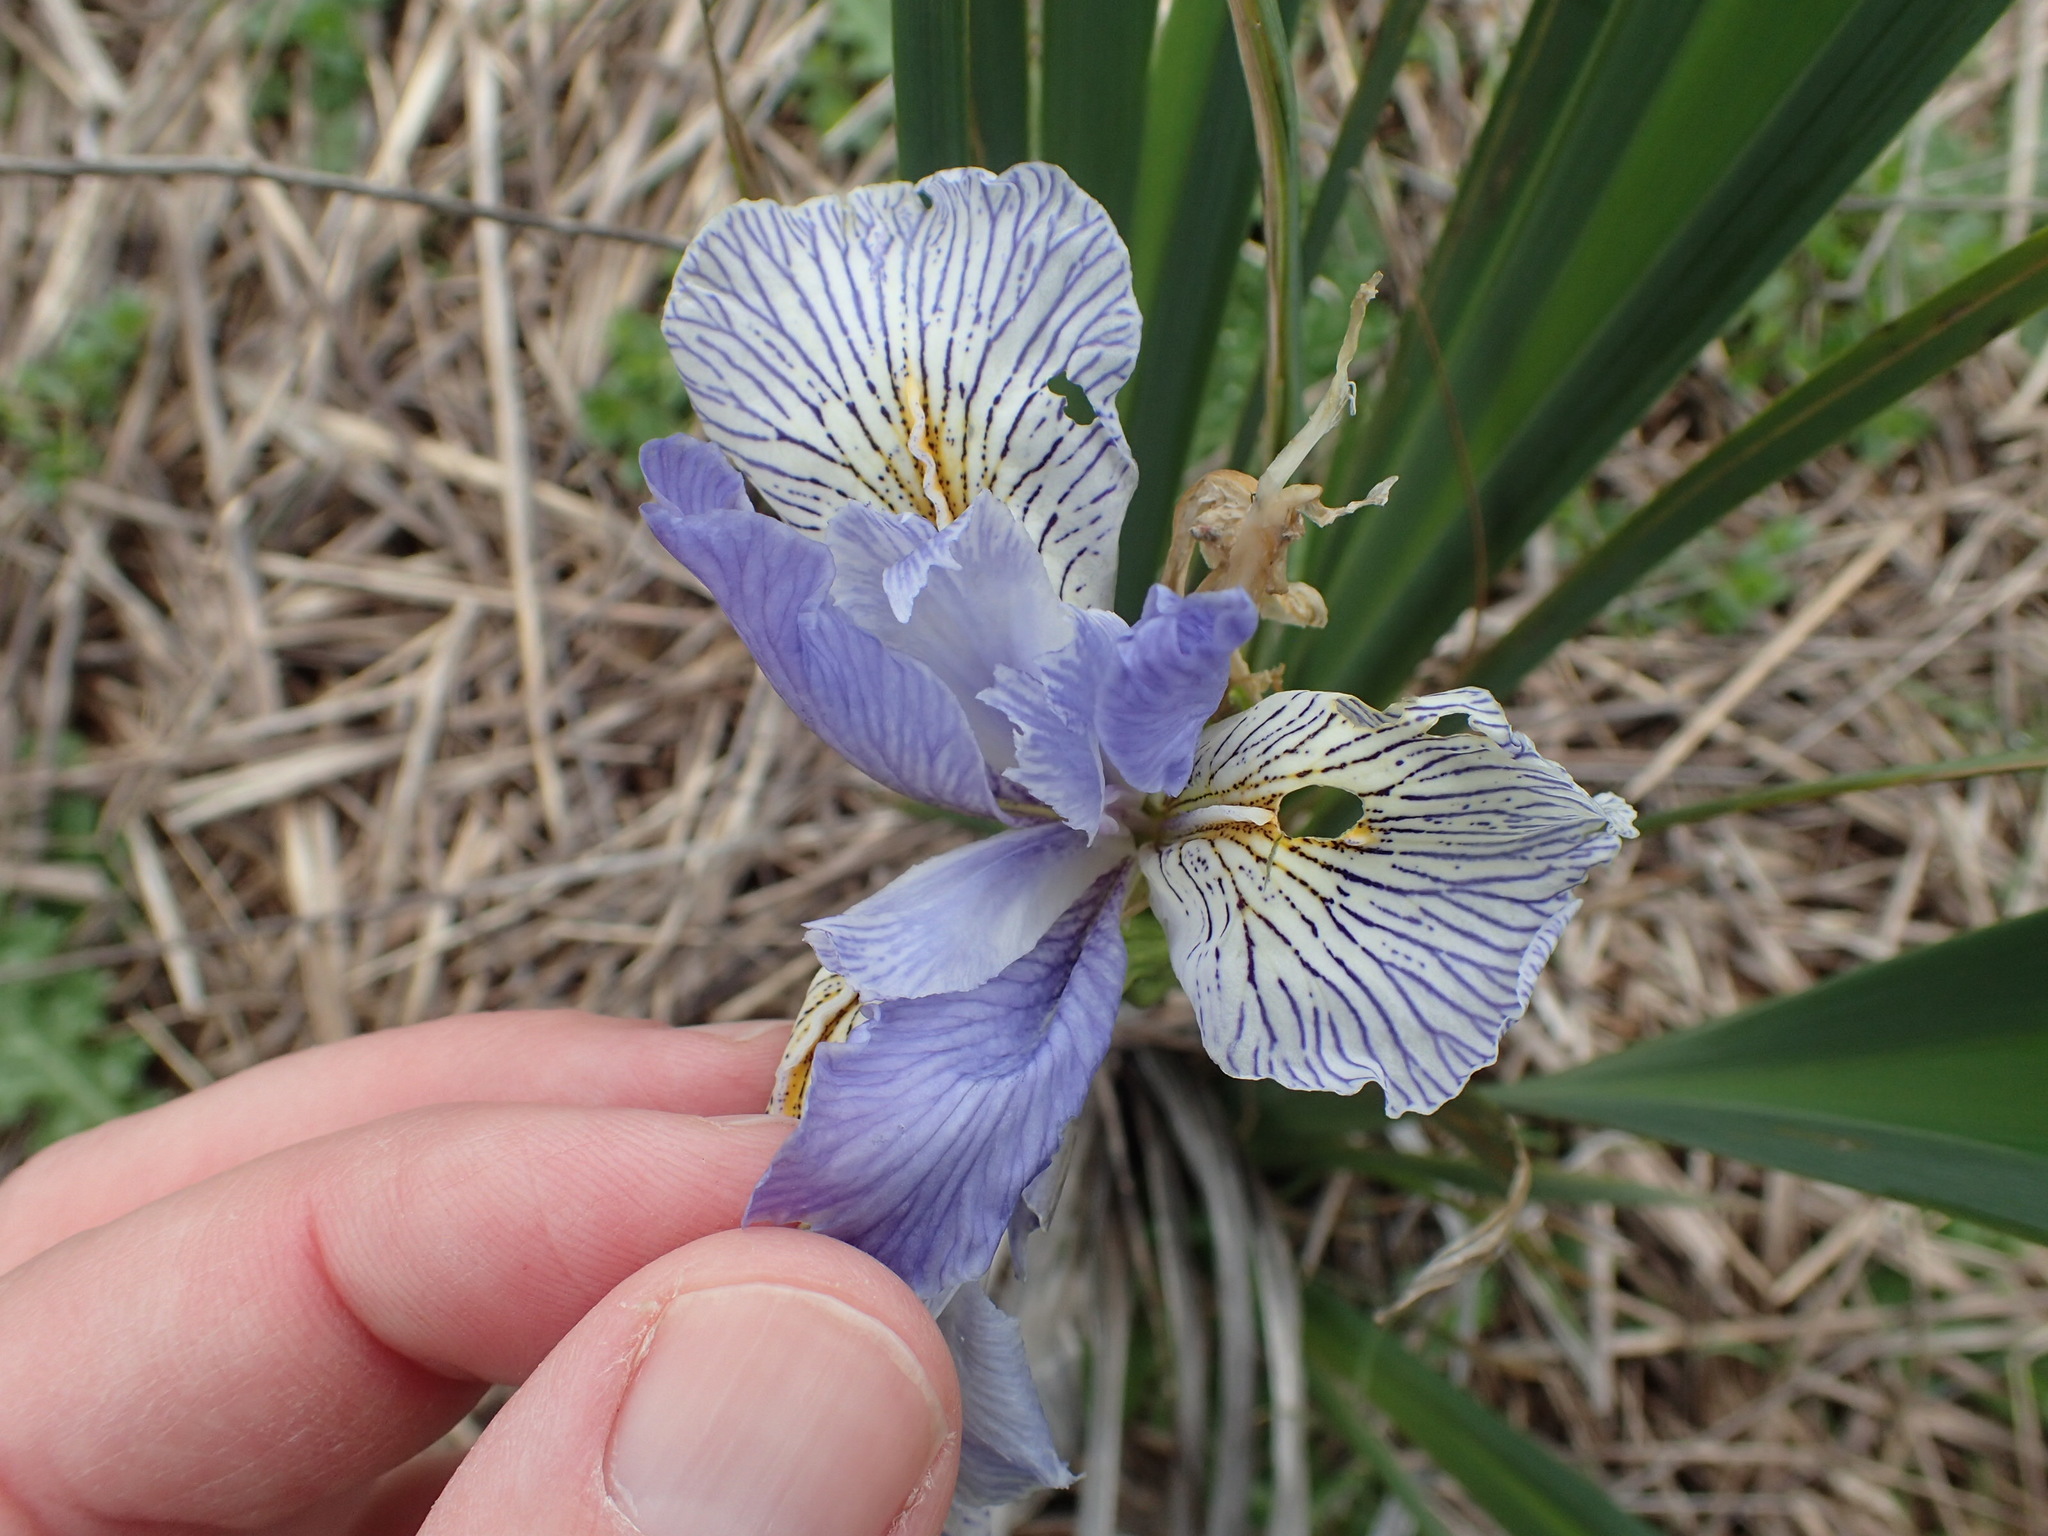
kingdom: Plantae
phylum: Tracheophyta
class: Liliopsida
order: Asparagales
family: Iridaceae
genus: Iris
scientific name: Iris longipetala
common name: Long-petal iris
